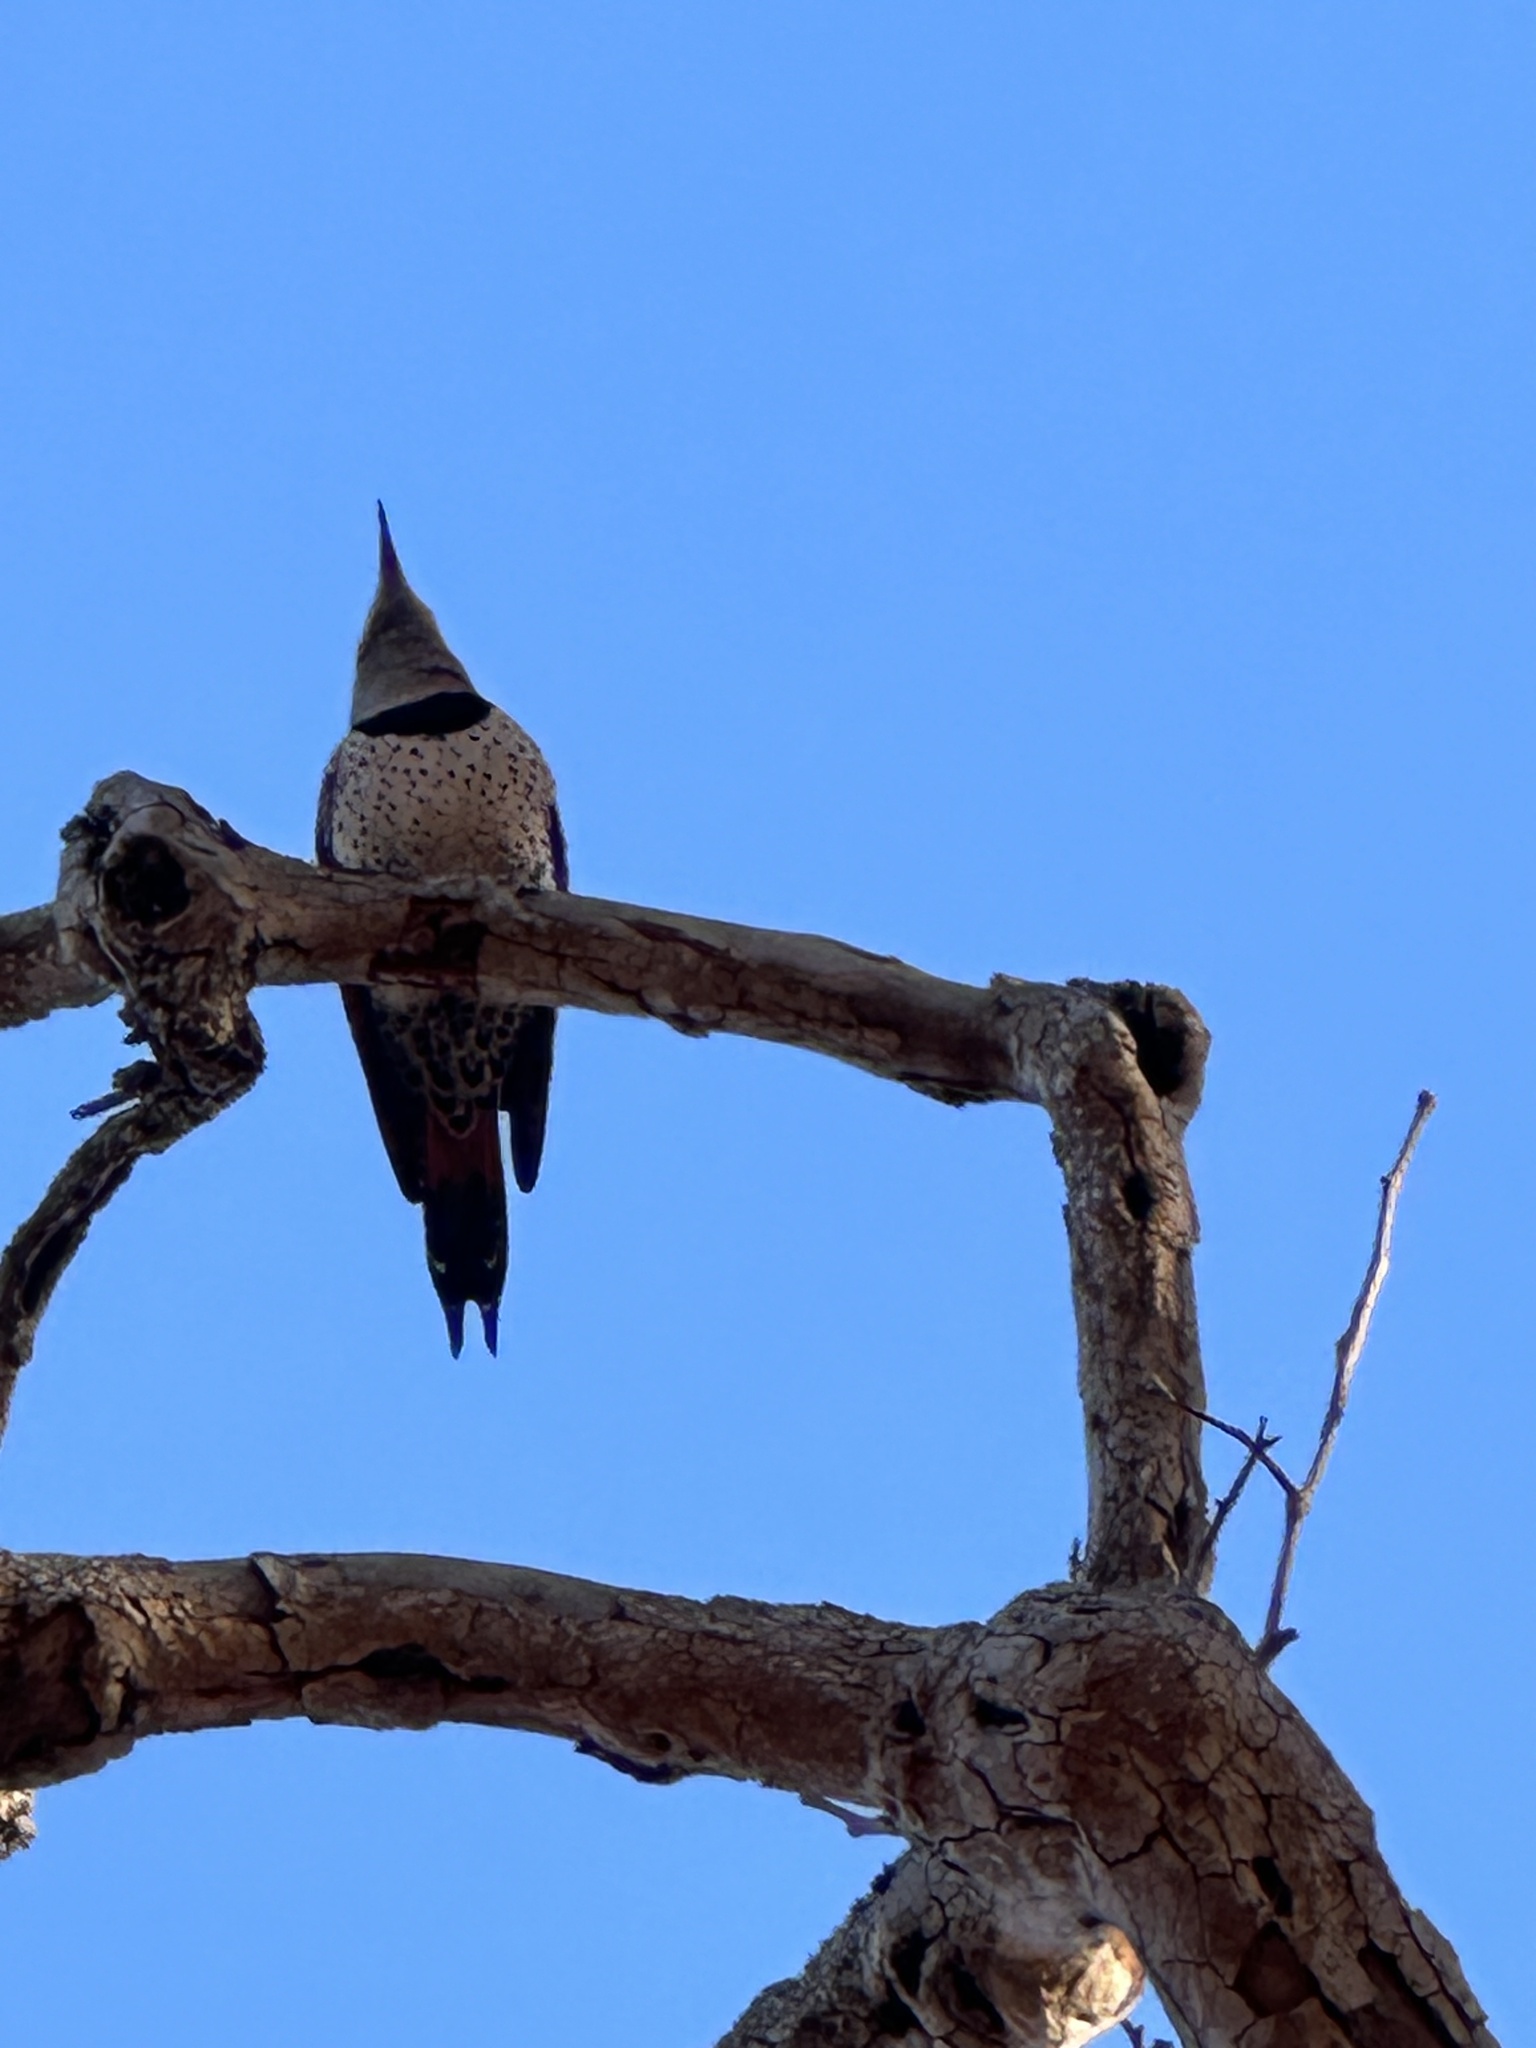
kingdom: Animalia
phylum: Chordata
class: Aves
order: Piciformes
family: Picidae
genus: Colaptes
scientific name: Colaptes auratus
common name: Northern flicker
